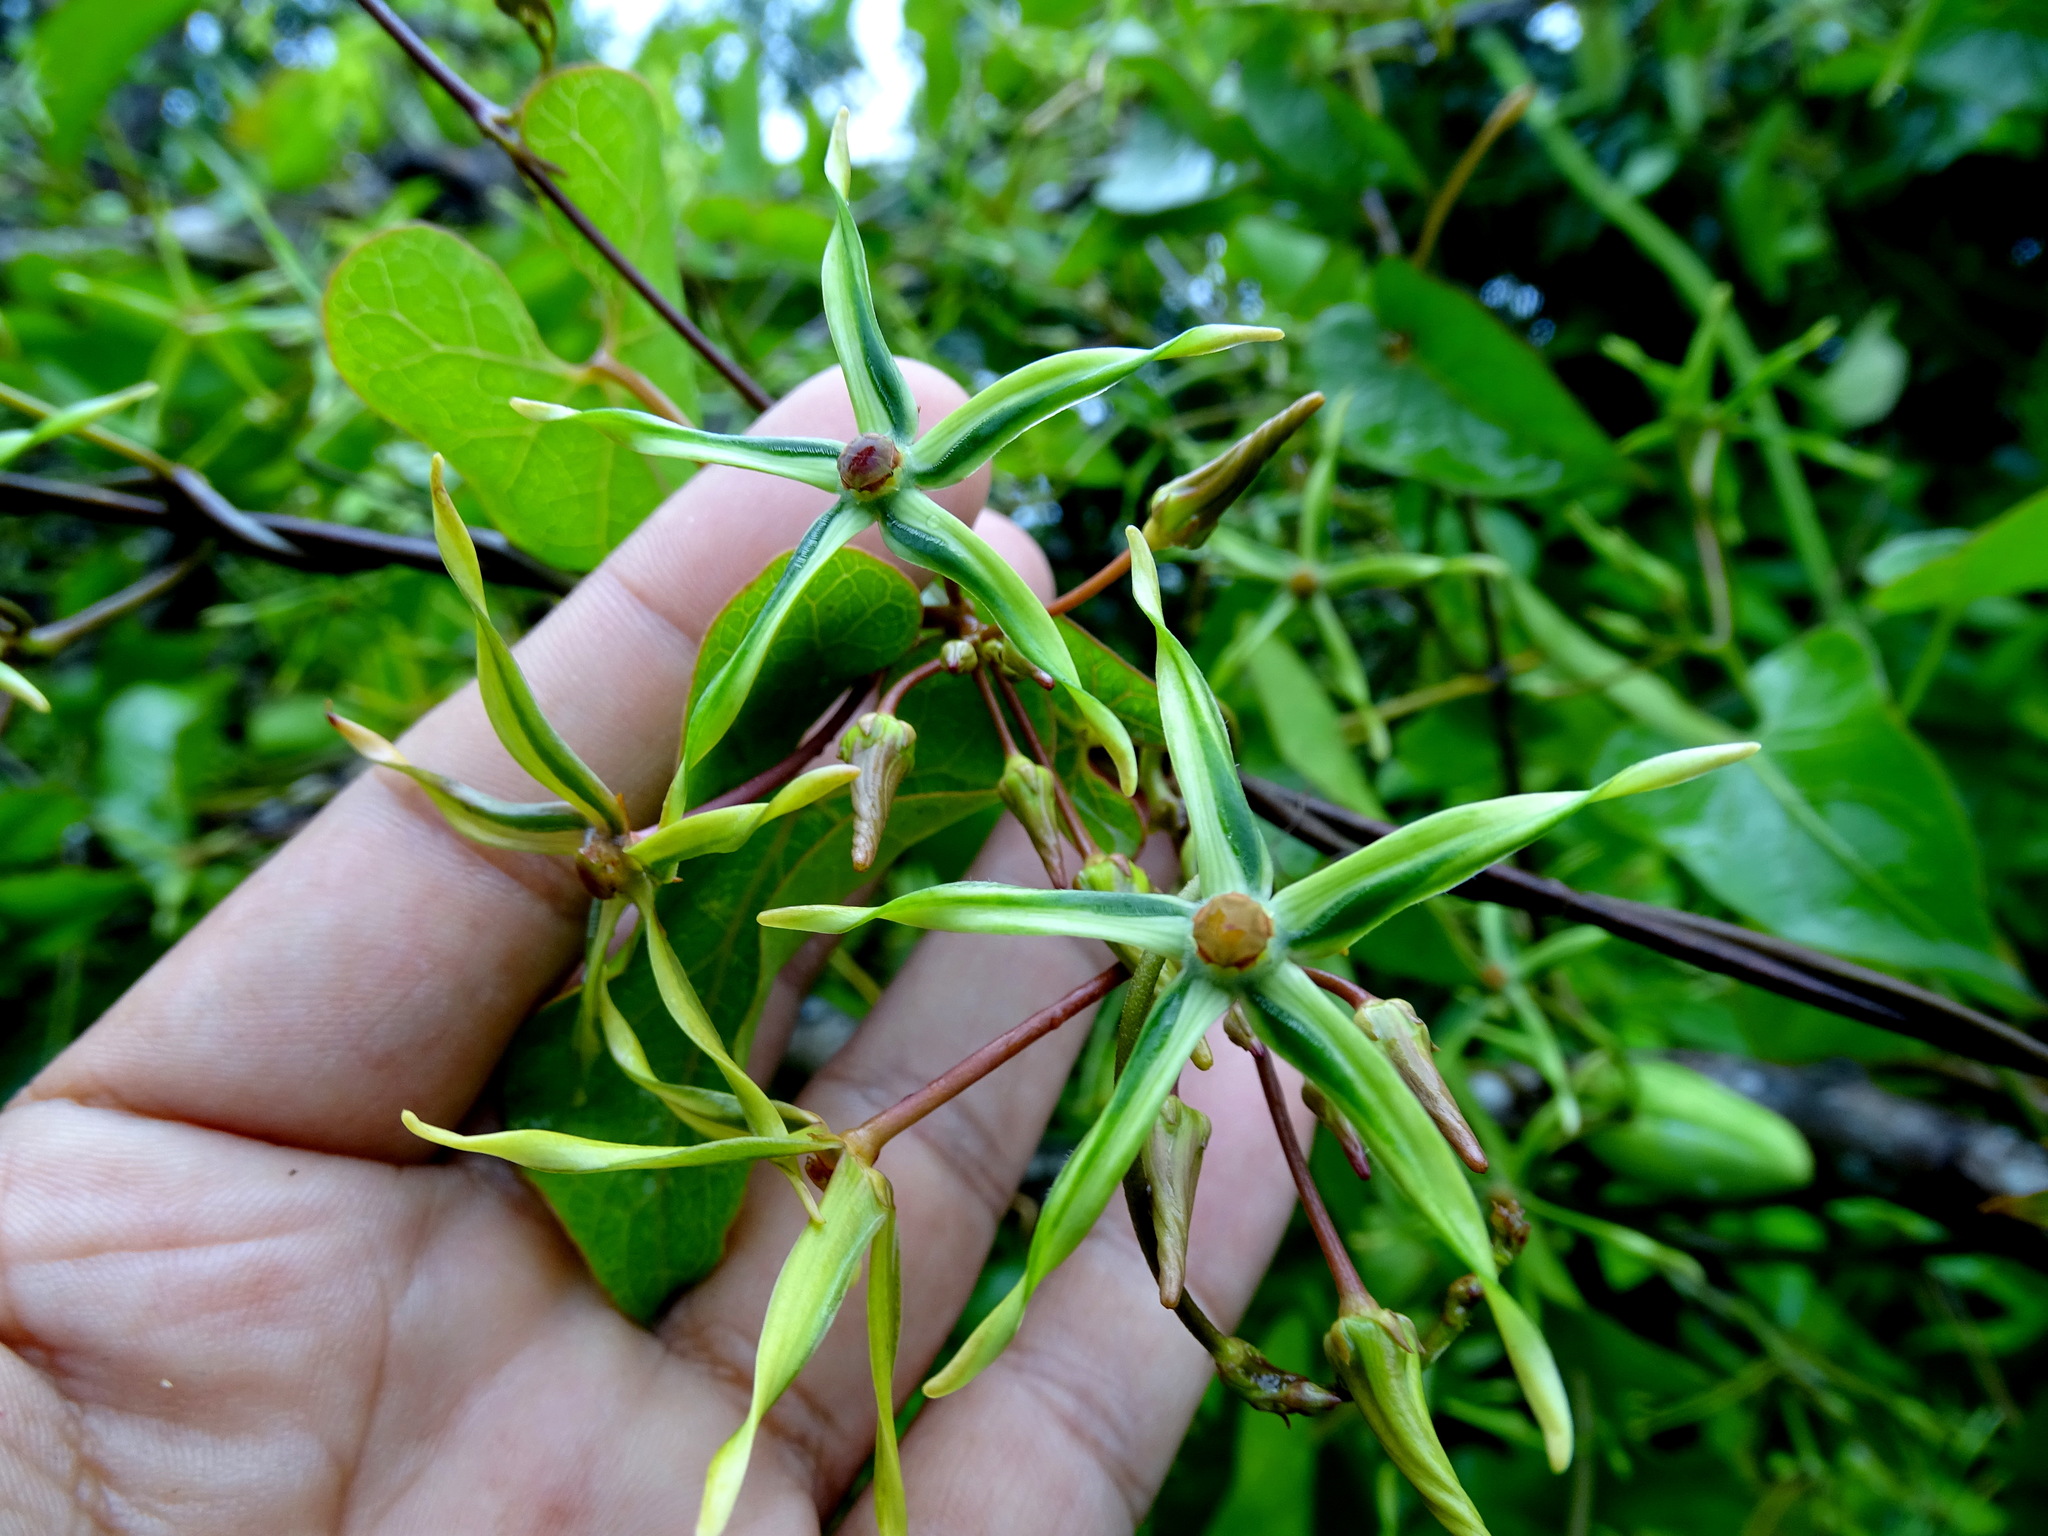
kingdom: Plantae
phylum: Tracheophyta
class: Magnoliopsida
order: Gentianales
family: Apocynaceae
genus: Gonolobus
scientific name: Gonolobus cteniophorus
